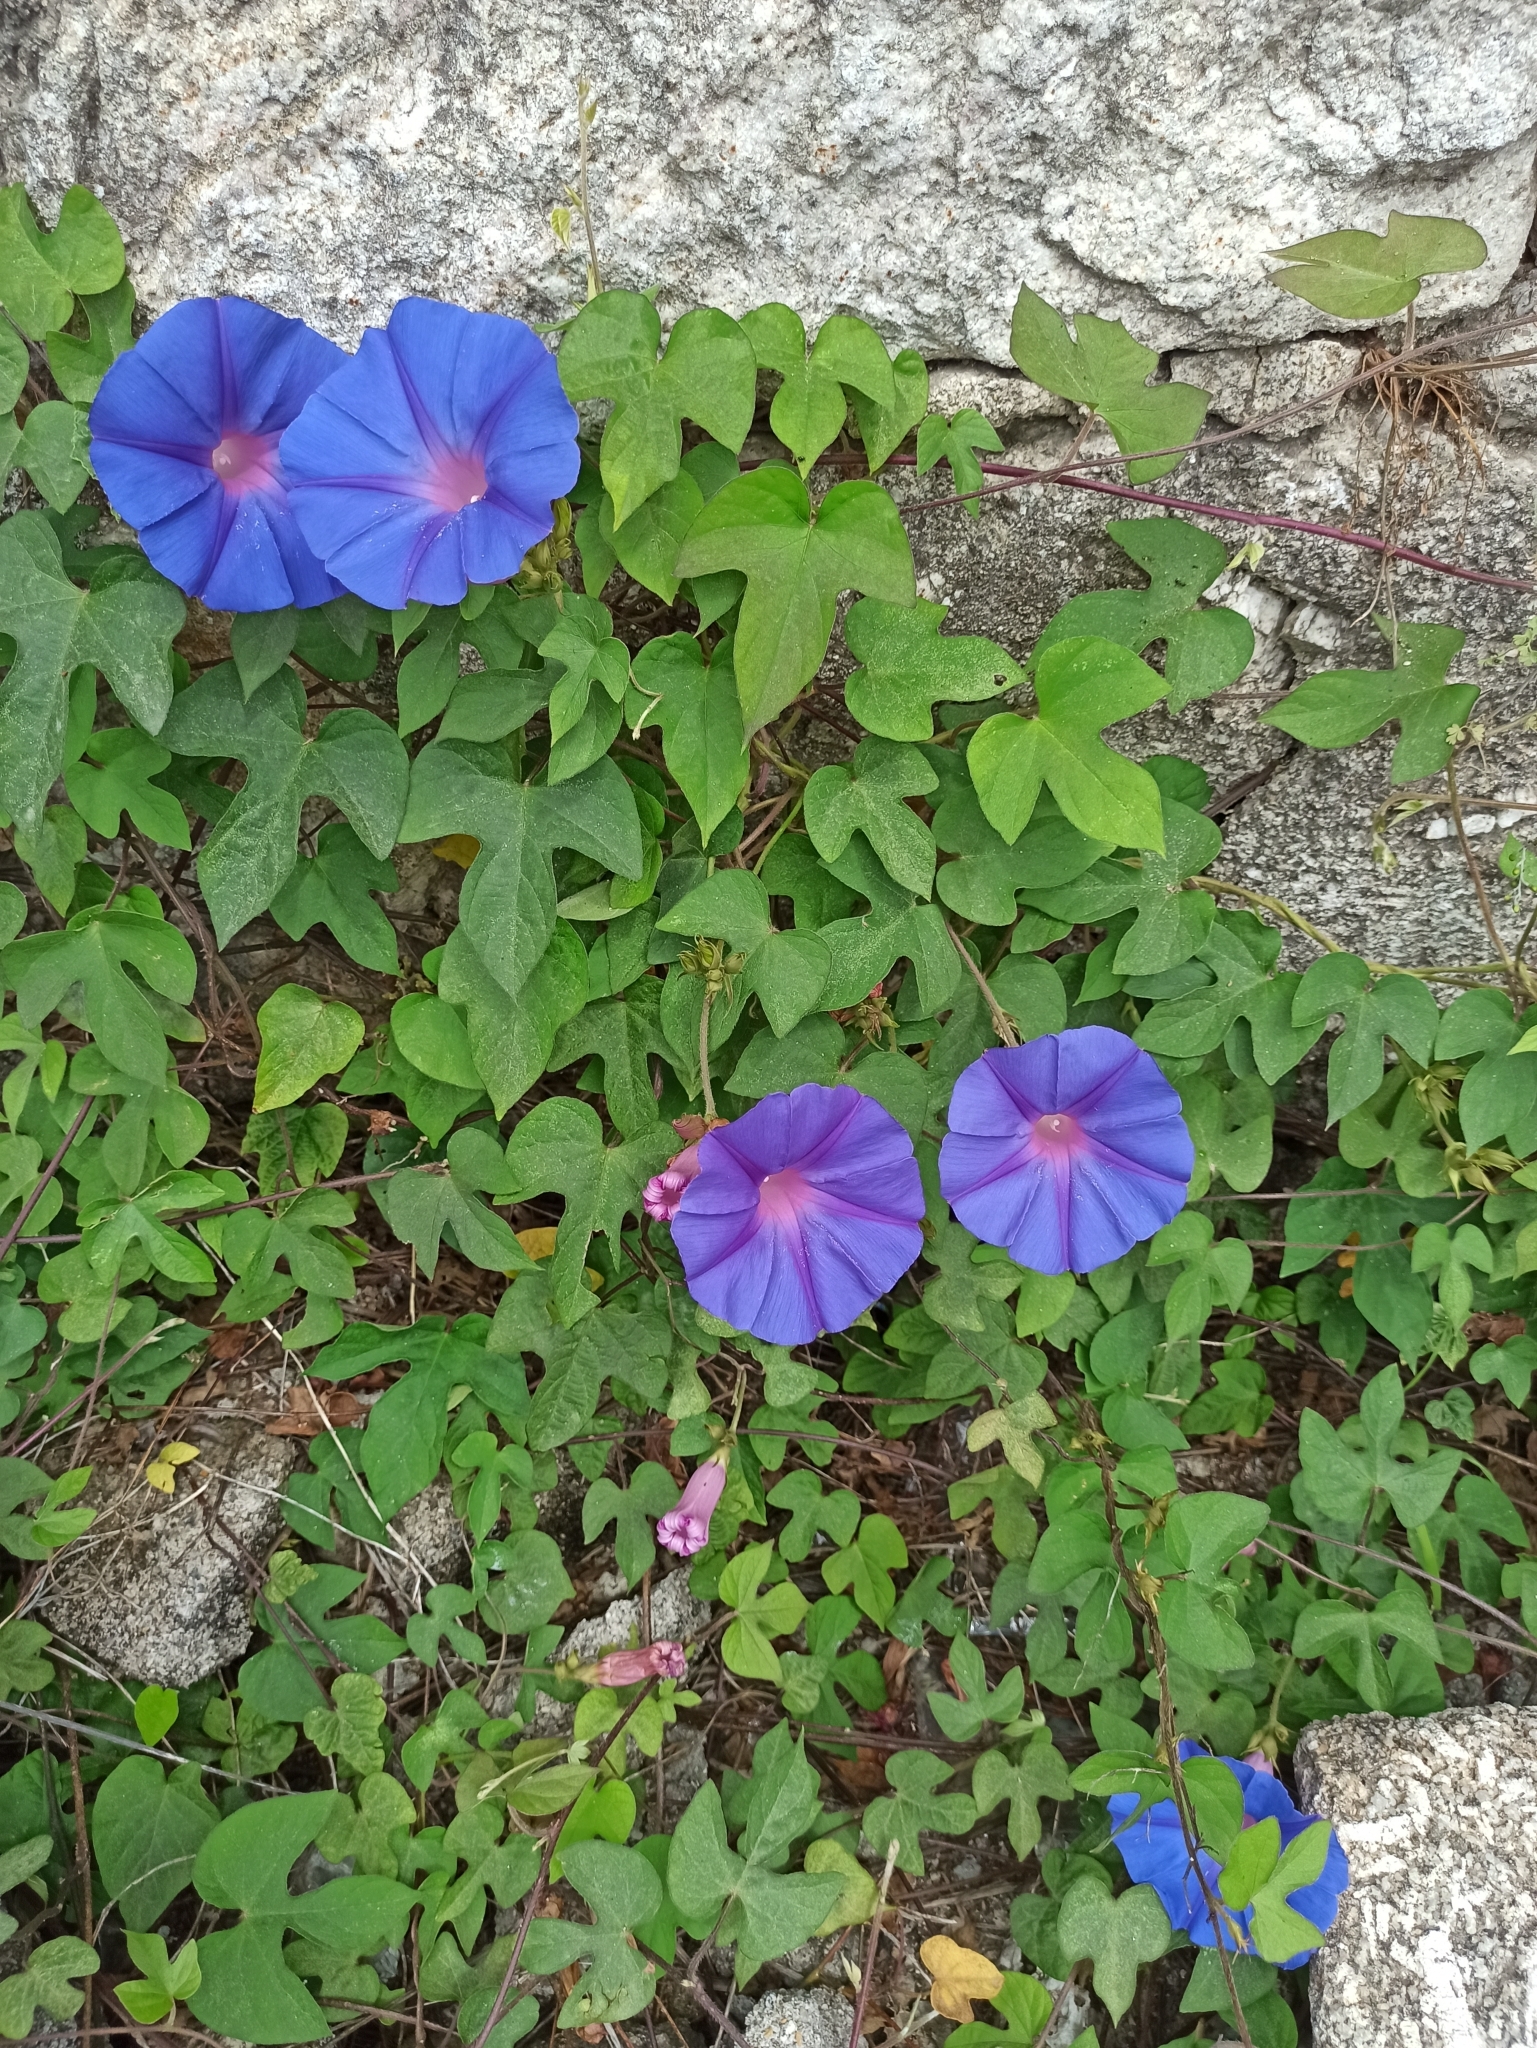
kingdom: Plantae
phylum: Tracheophyta
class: Magnoliopsida
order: Solanales
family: Convolvulaceae
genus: Ipomoea
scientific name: Ipomoea indica
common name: Blue dawnflower
